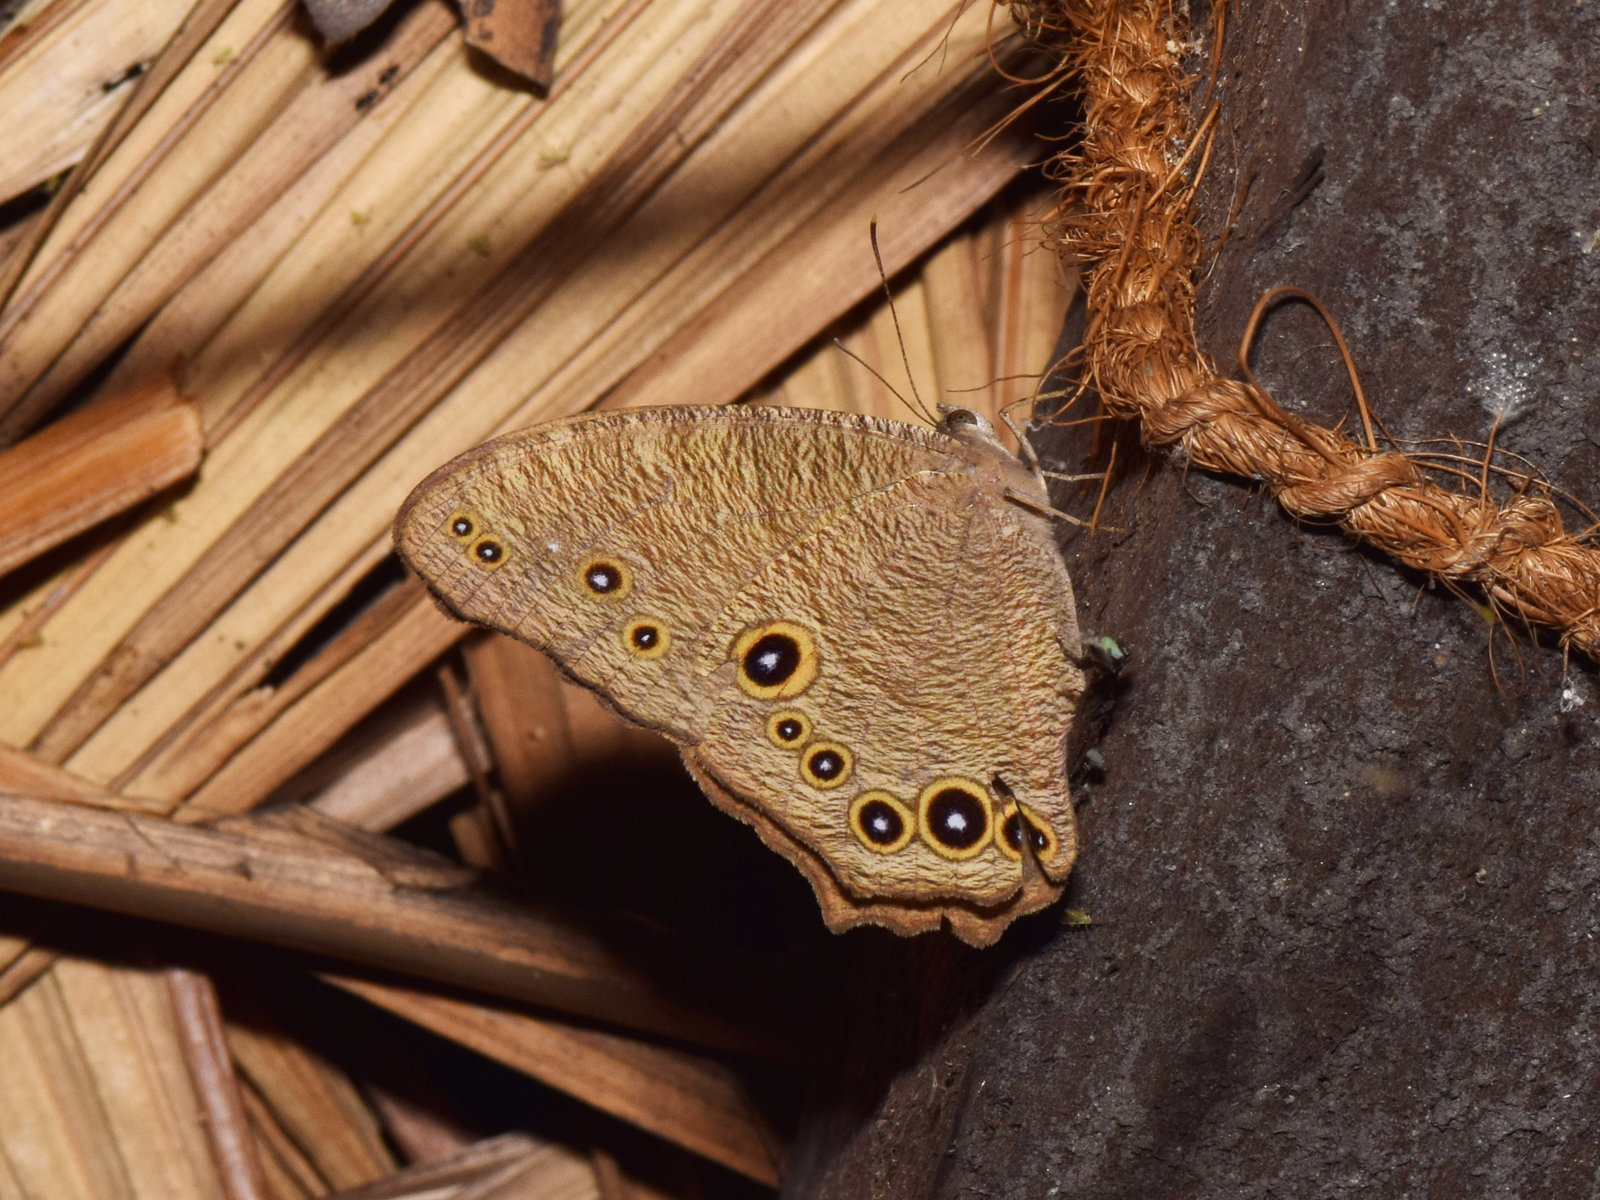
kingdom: Animalia
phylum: Arthropoda
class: Insecta
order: Lepidoptera
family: Nymphalidae
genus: Melanitis
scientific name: Melanitis leda
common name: Twilight brown
